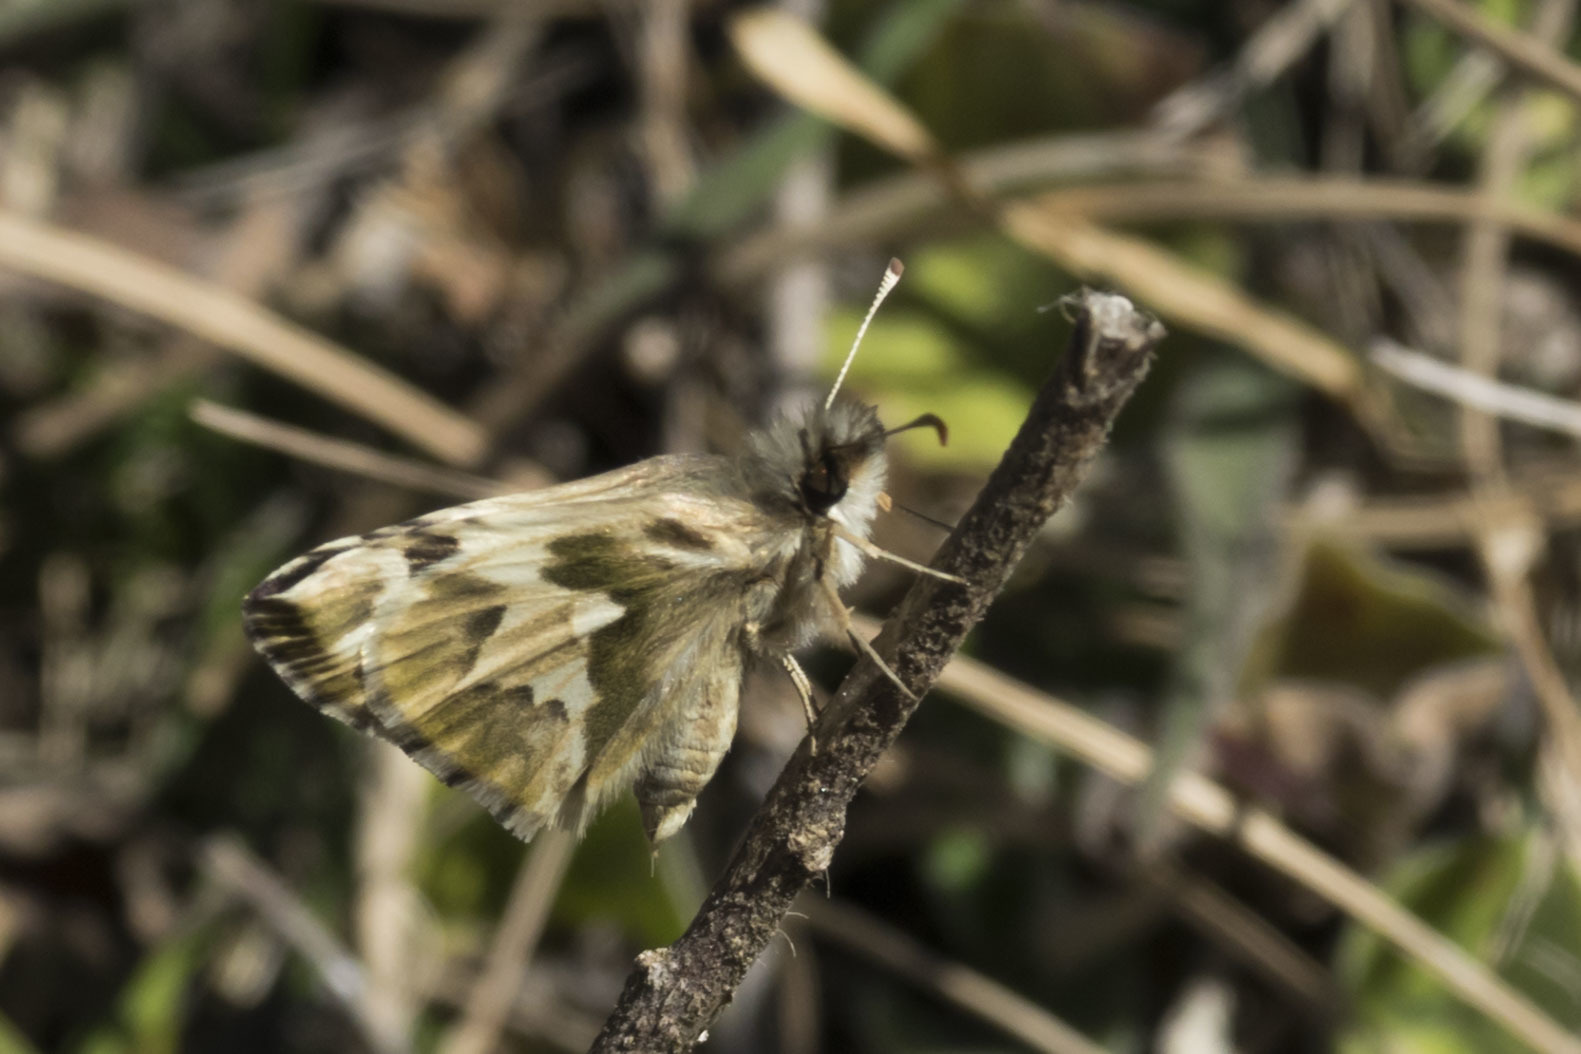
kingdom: Animalia
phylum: Arthropoda
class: Insecta
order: Lepidoptera
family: Hesperiidae
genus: Heliopetes
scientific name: Heliopetes omrina
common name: Stained white-skipper
